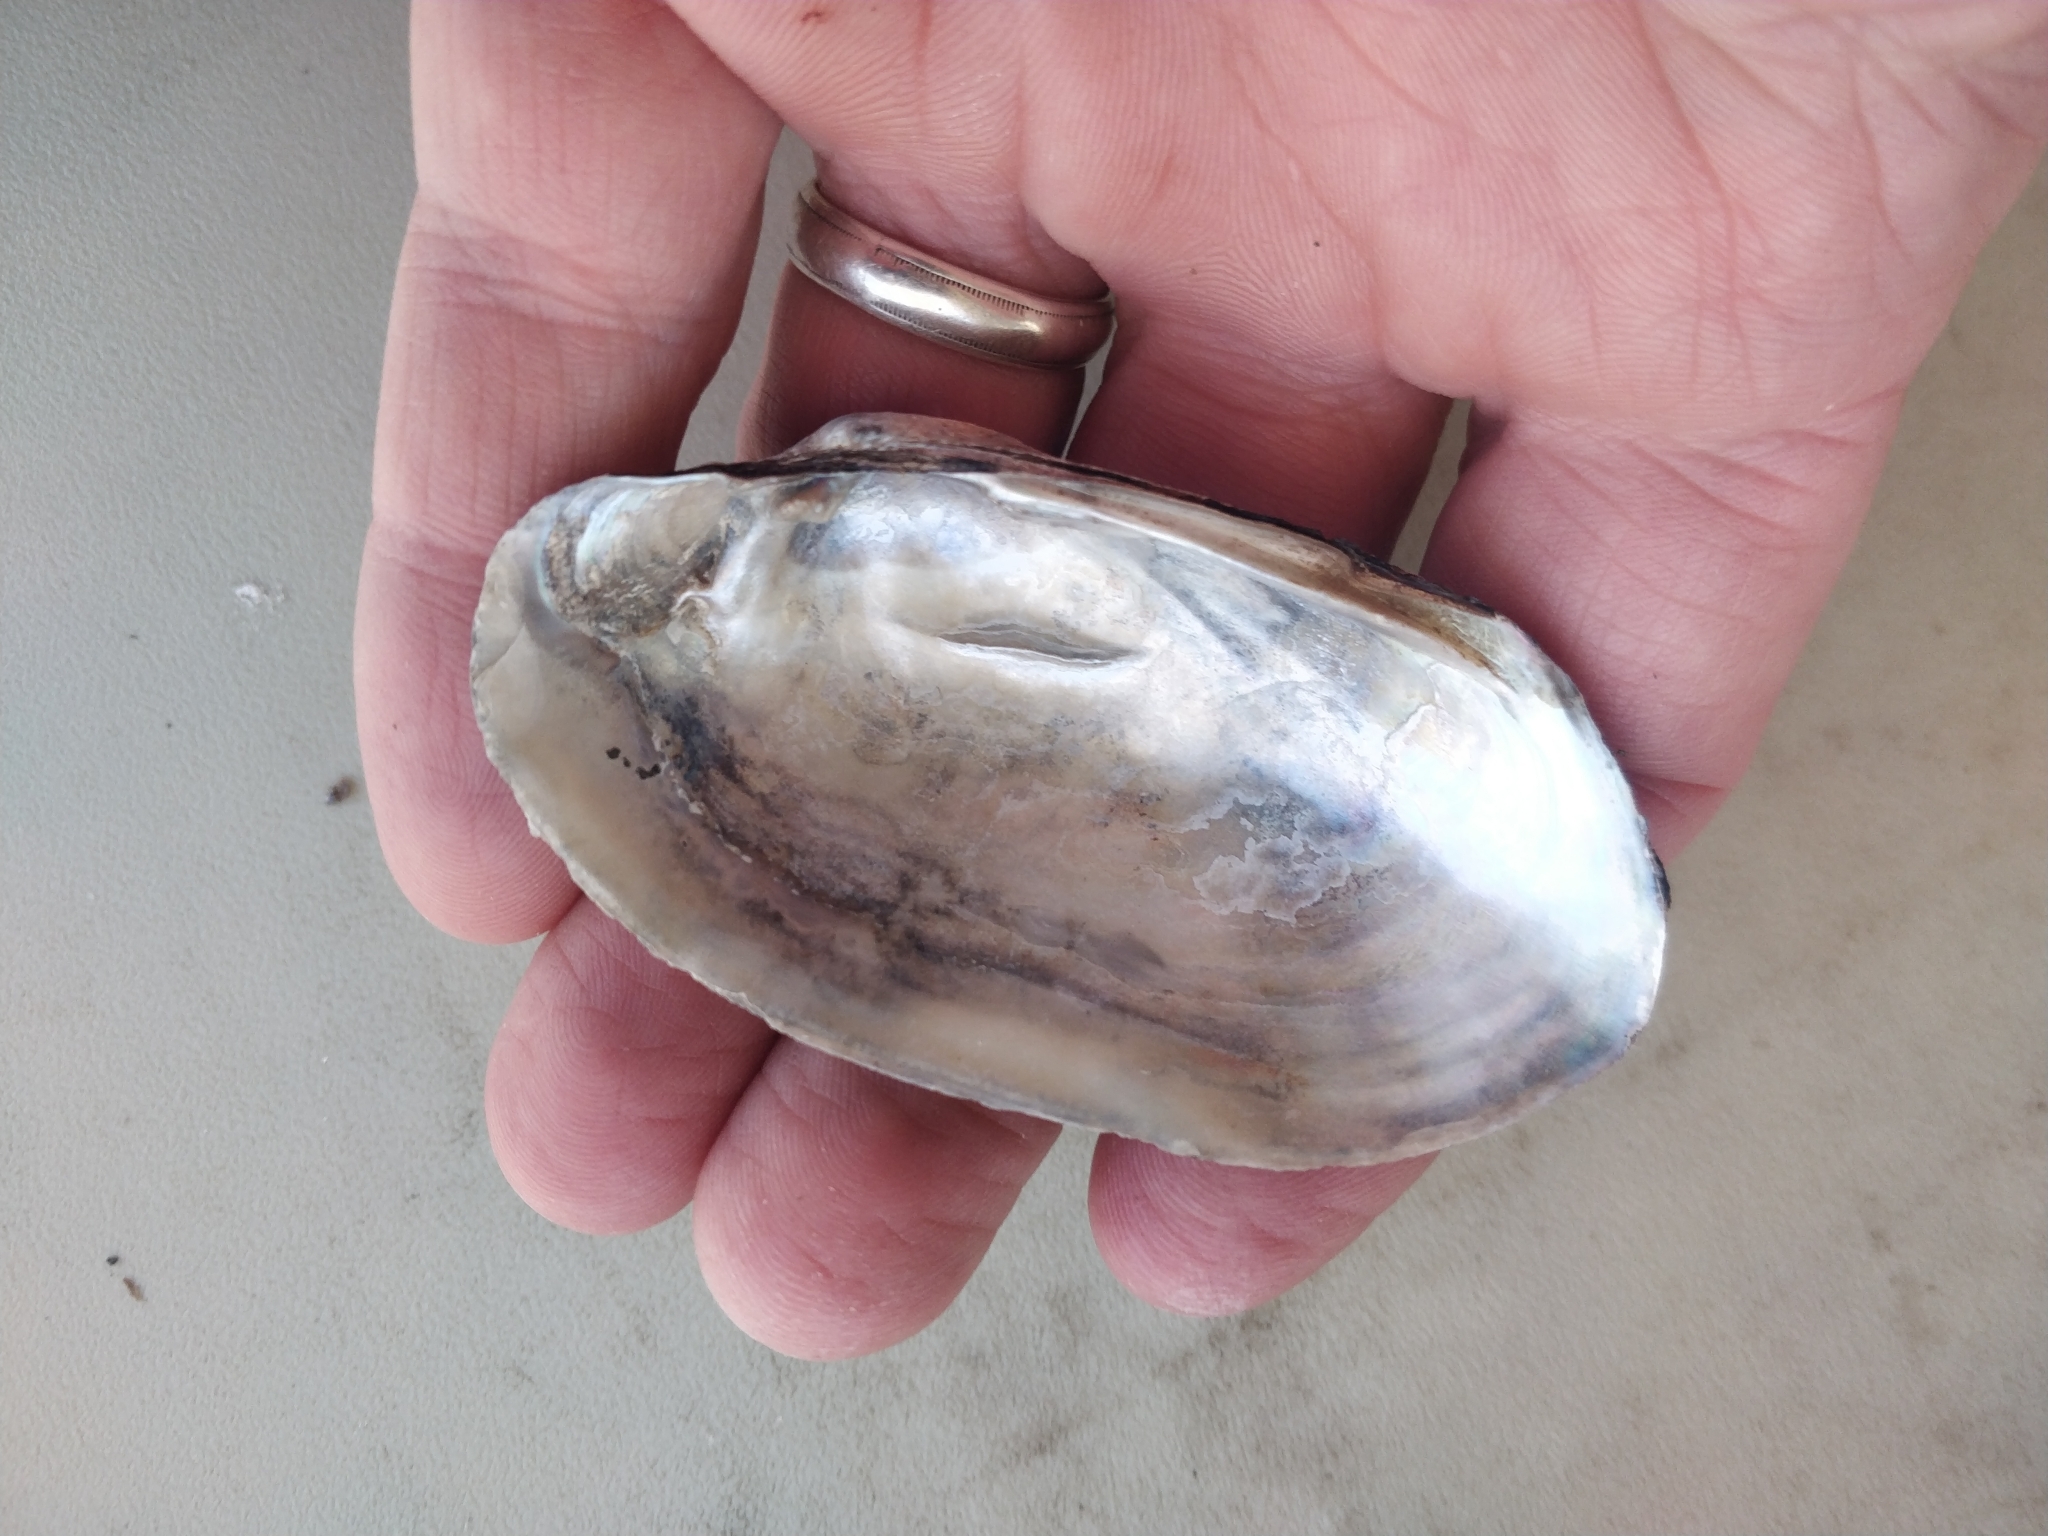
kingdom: Animalia
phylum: Mollusca
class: Bivalvia
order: Unionida
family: Unionidae
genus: Lampsilis
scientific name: Lampsilis siliquoidea
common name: Fatmucket
